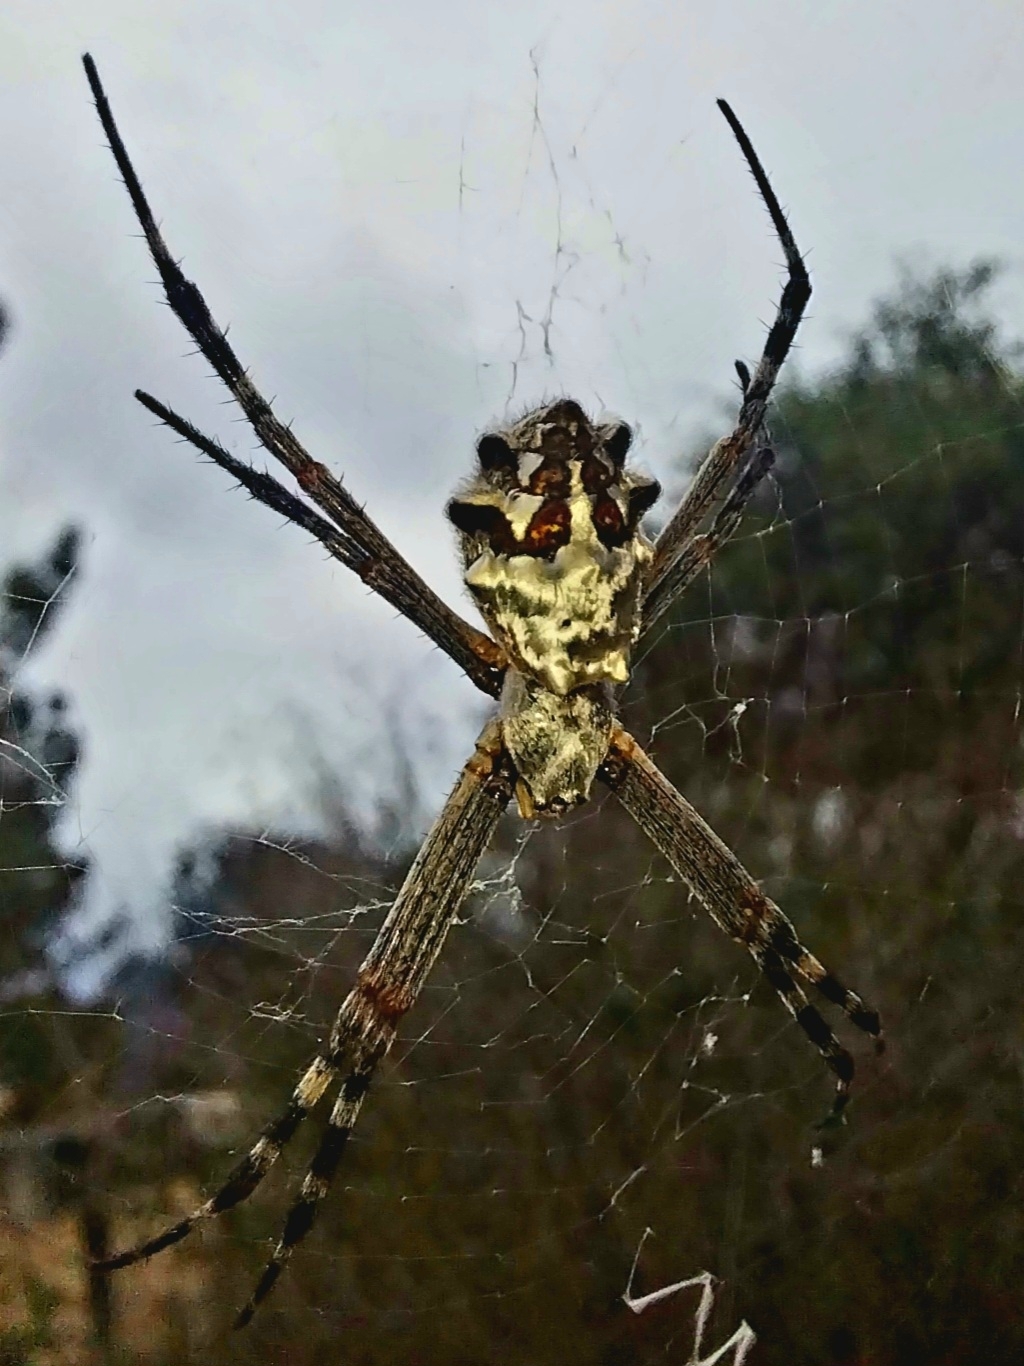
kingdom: Animalia
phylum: Arthropoda
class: Arachnida
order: Araneae
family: Araneidae
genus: Argiope
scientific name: Argiope argentata
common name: Orb weavers
